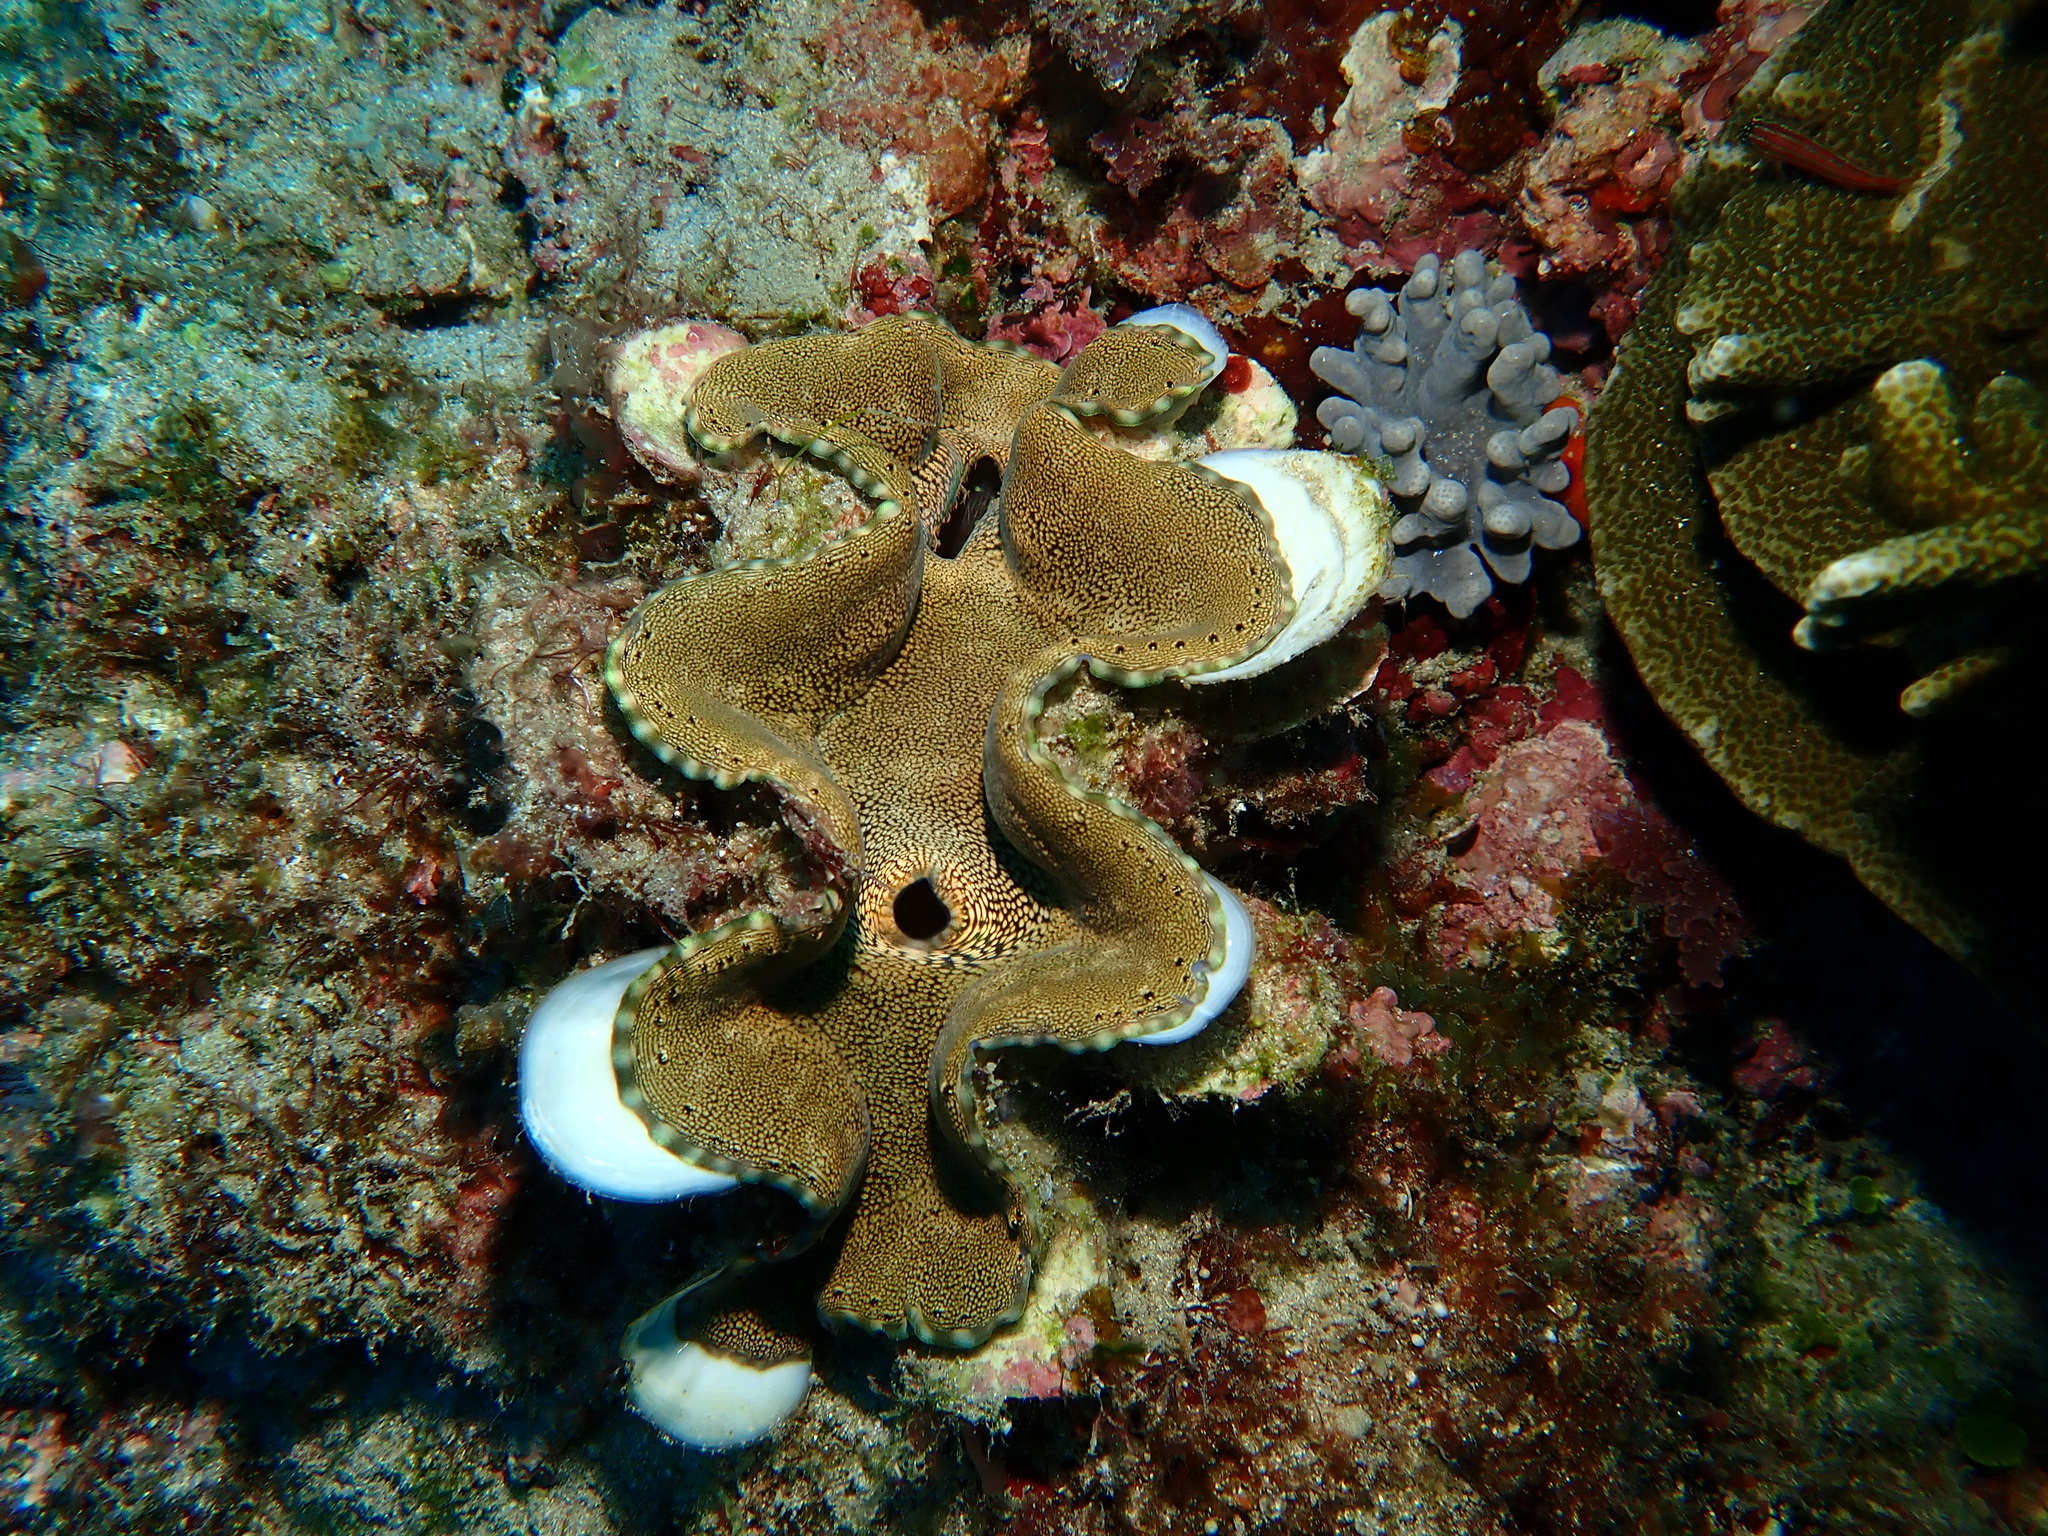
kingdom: Animalia
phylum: Mollusca
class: Bivalvia
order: Cardiida
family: Cardiidae
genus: Tridacna
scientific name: Tridacna squamosa
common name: Fluted clam
